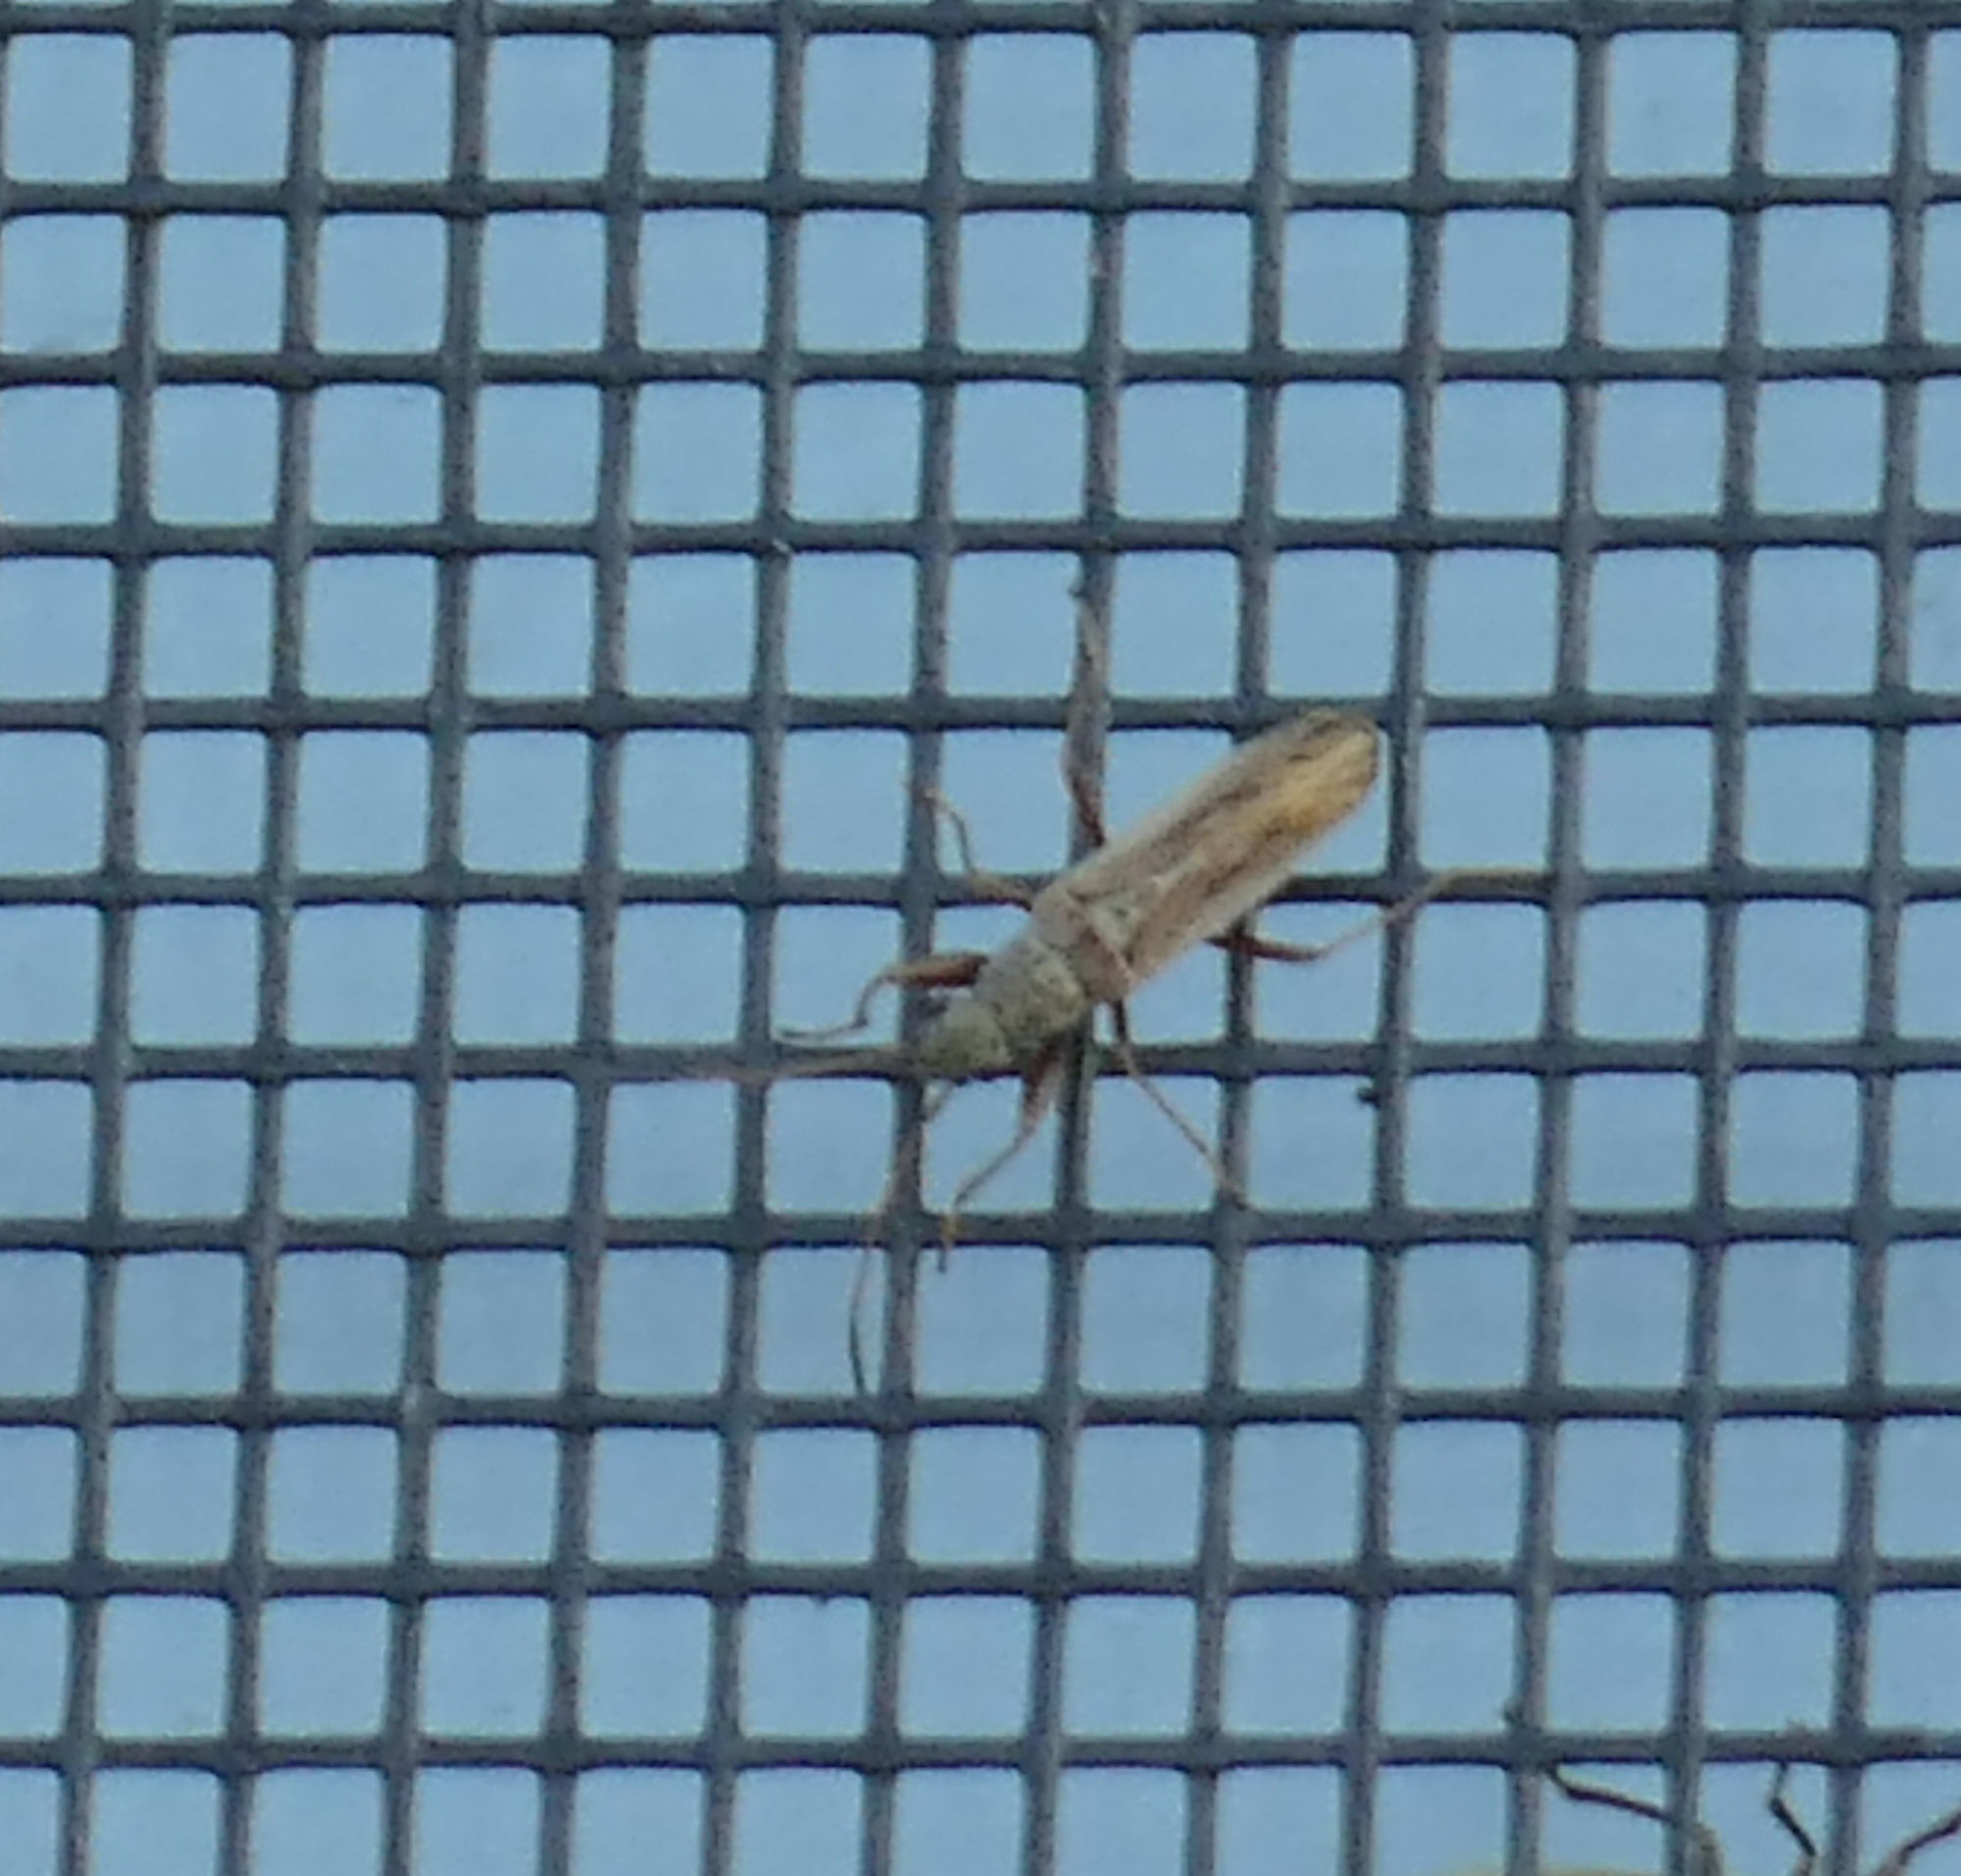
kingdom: Animalia
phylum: Arthropoda
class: Insecta
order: Hemiptera
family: Rhyparochromidae
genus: Paromius
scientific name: Paromius longulus
